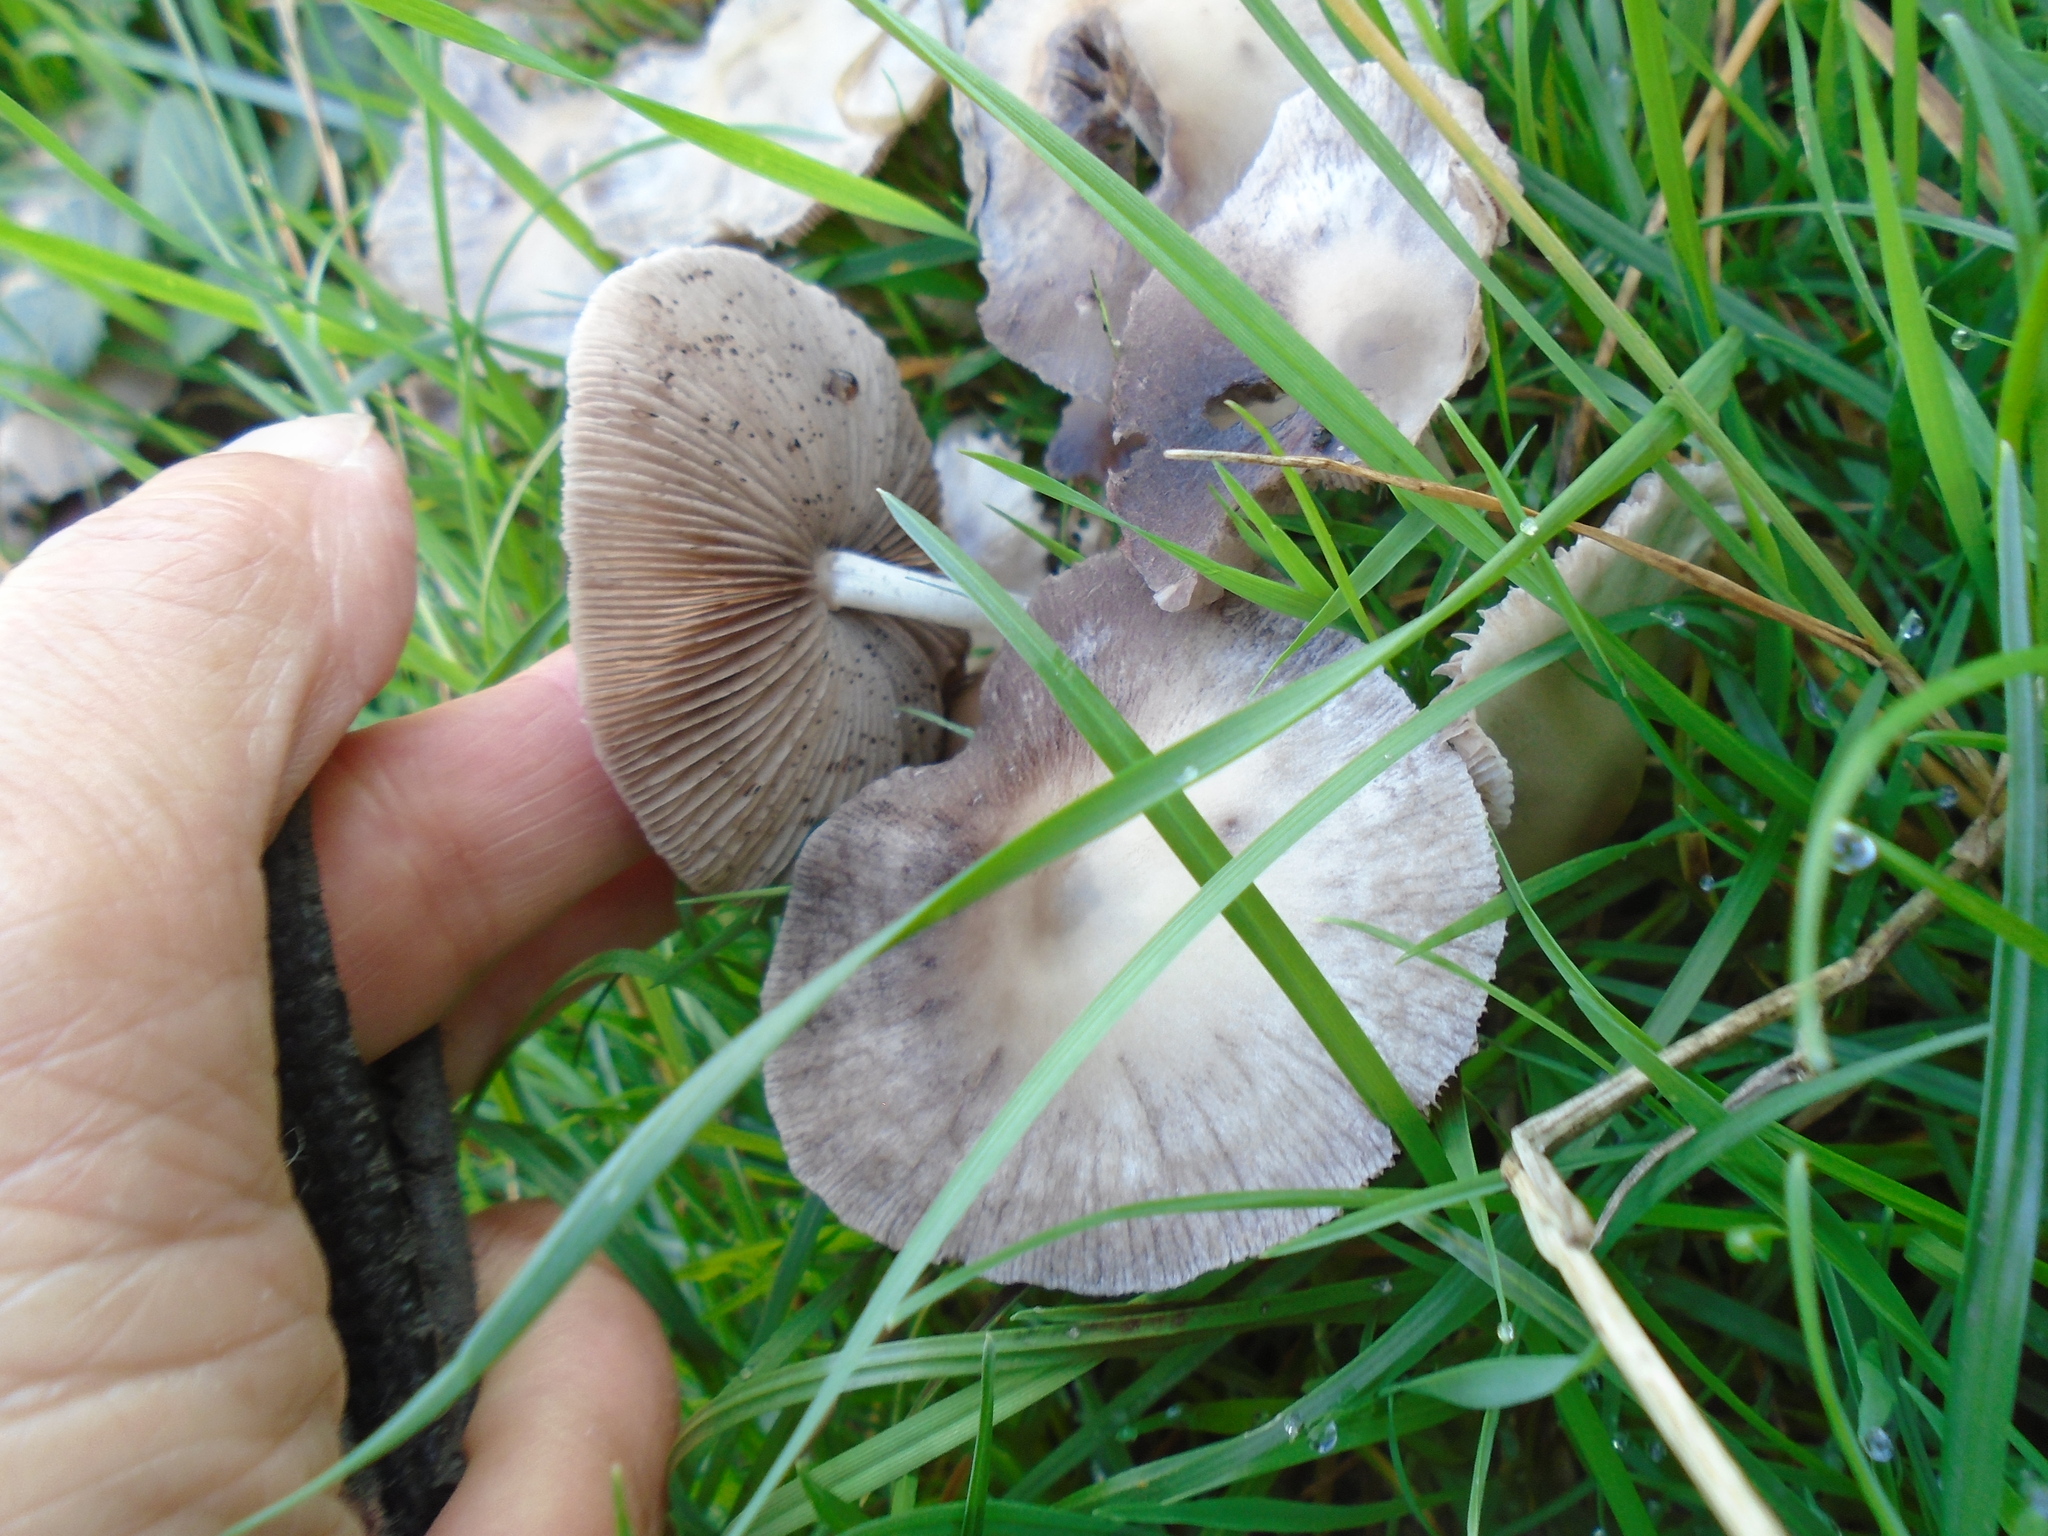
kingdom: Fungi
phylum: Basidiomycota
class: Agaricomycetes
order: Agaricales
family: Psathyrellaceae
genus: Candolleomyces
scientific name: Candolleomyces candolleanus
